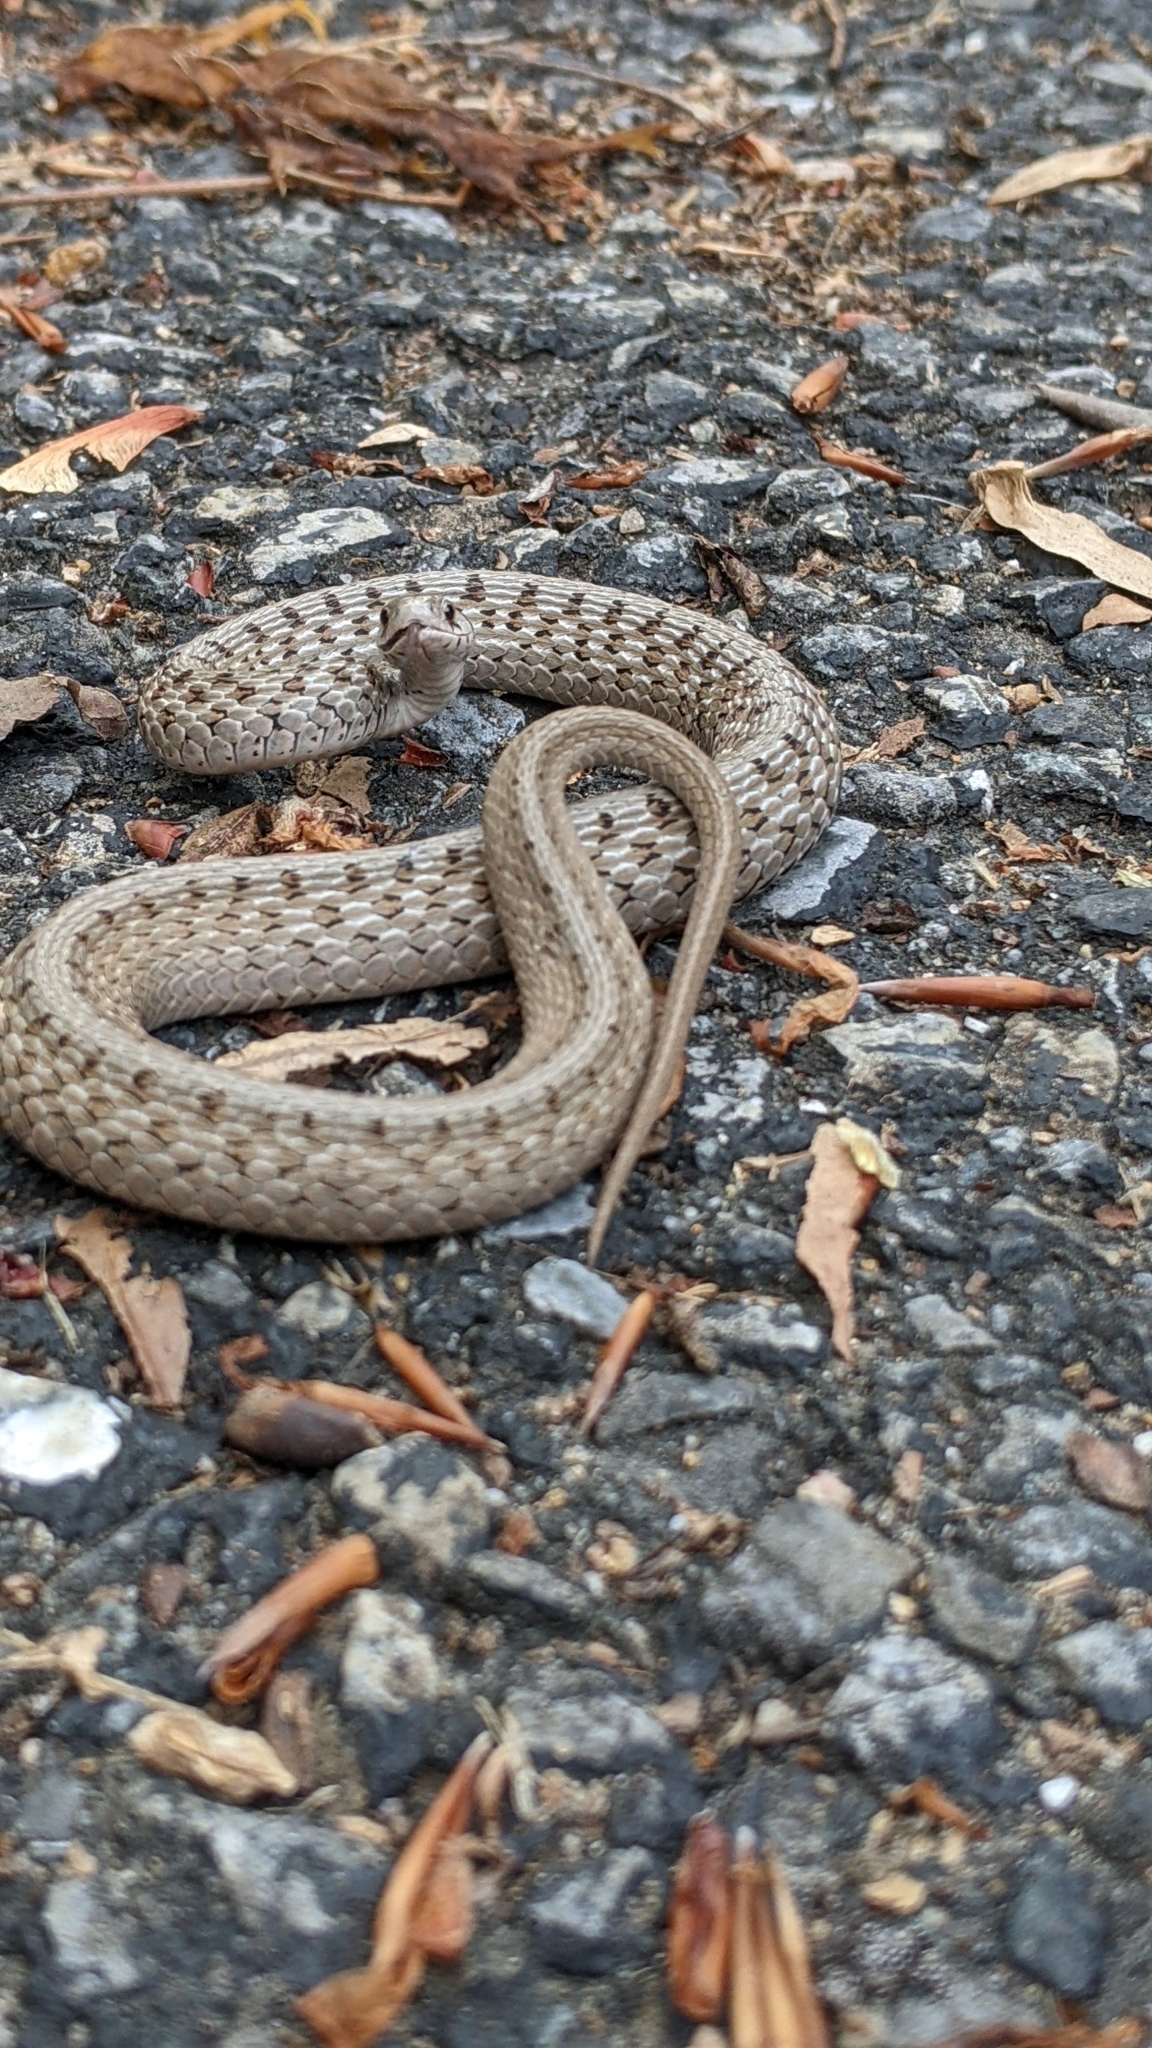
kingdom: Animalia
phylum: Chordata
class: Squamata
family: Colubridae
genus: Storeria
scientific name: Storeria dekayi
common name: (dekay’s) brown snake
